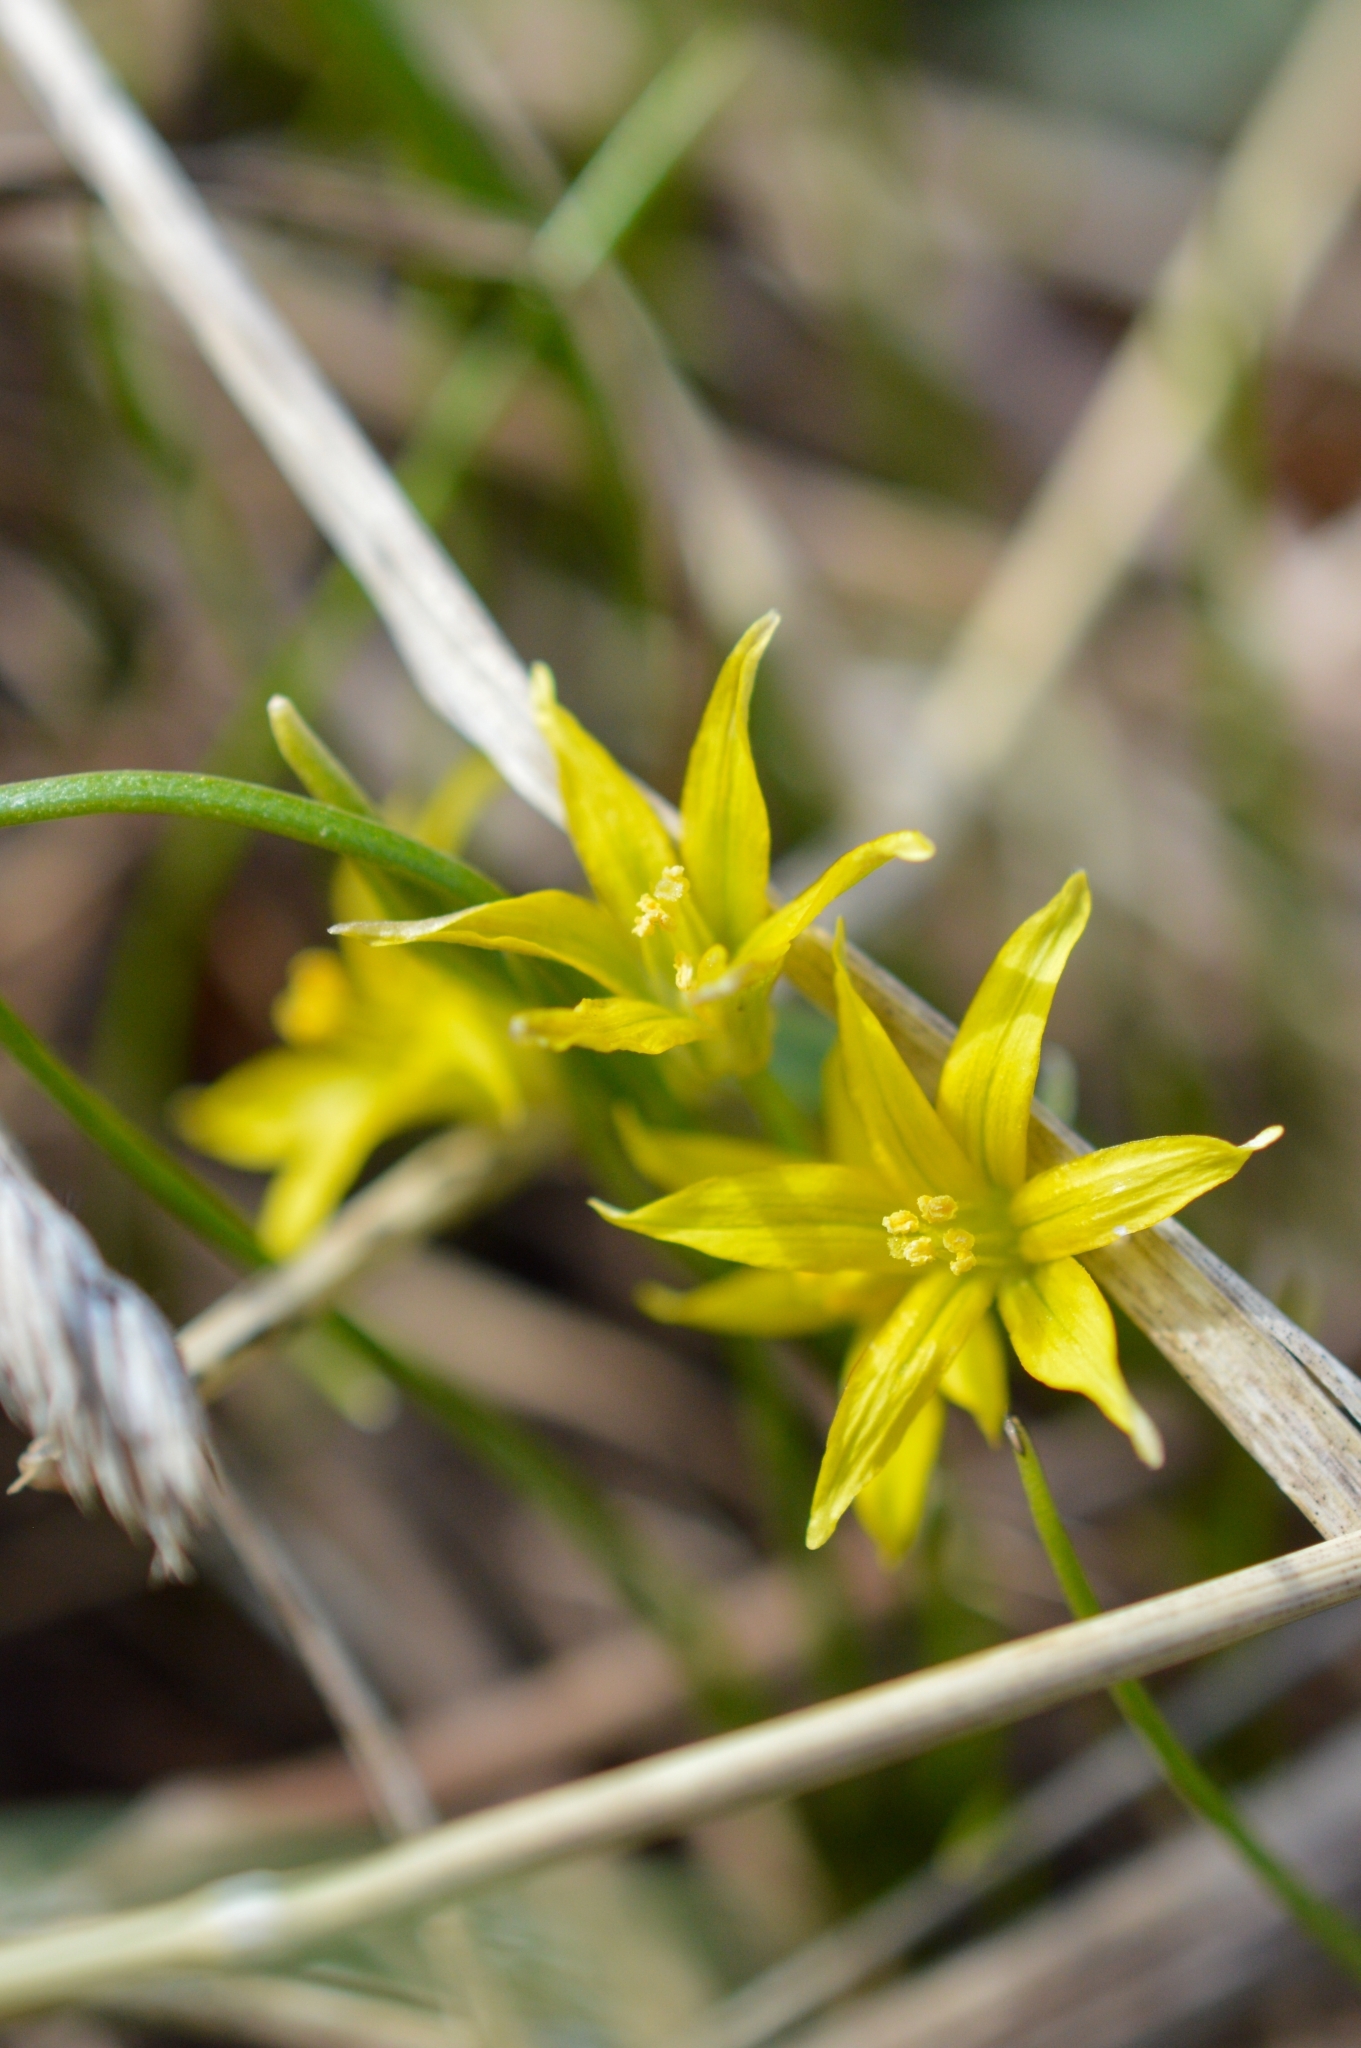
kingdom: Plantae
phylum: Tracheophyta
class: Liliopsida
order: Liliales
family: Liliaceae
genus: Gagea
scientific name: Gagea minima
